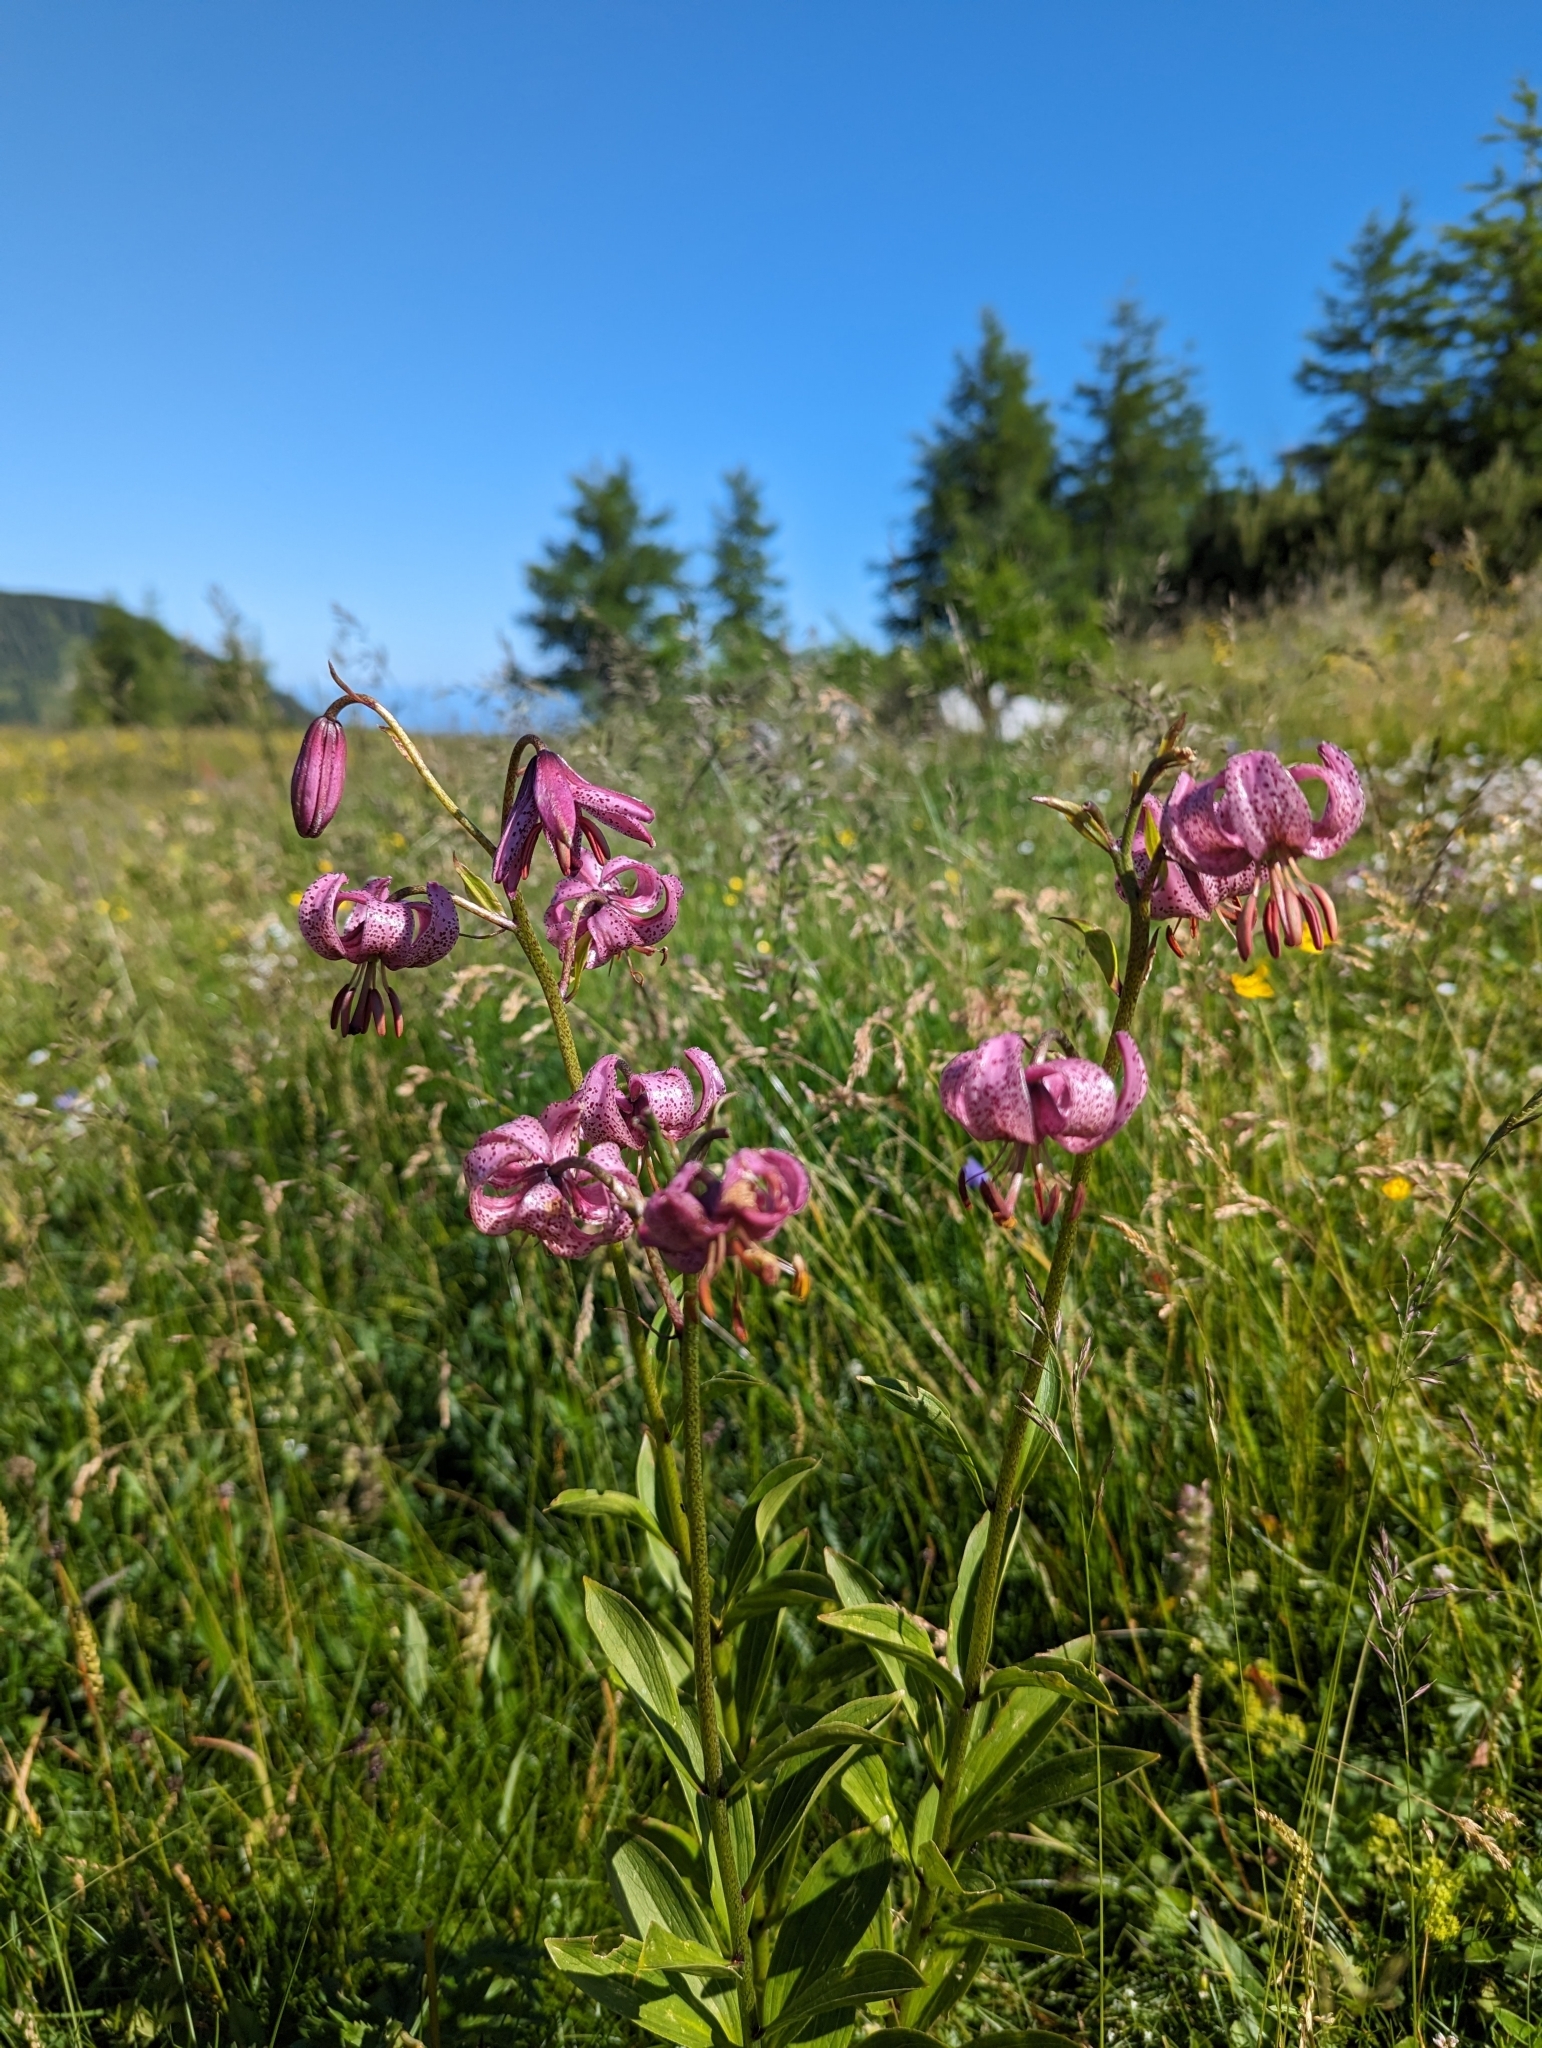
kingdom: Plantae
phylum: Tracheophyta
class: Liliopsida
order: Liliales
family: Liliaceae
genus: Lilium
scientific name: Lilium martagon
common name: Martagon lily
